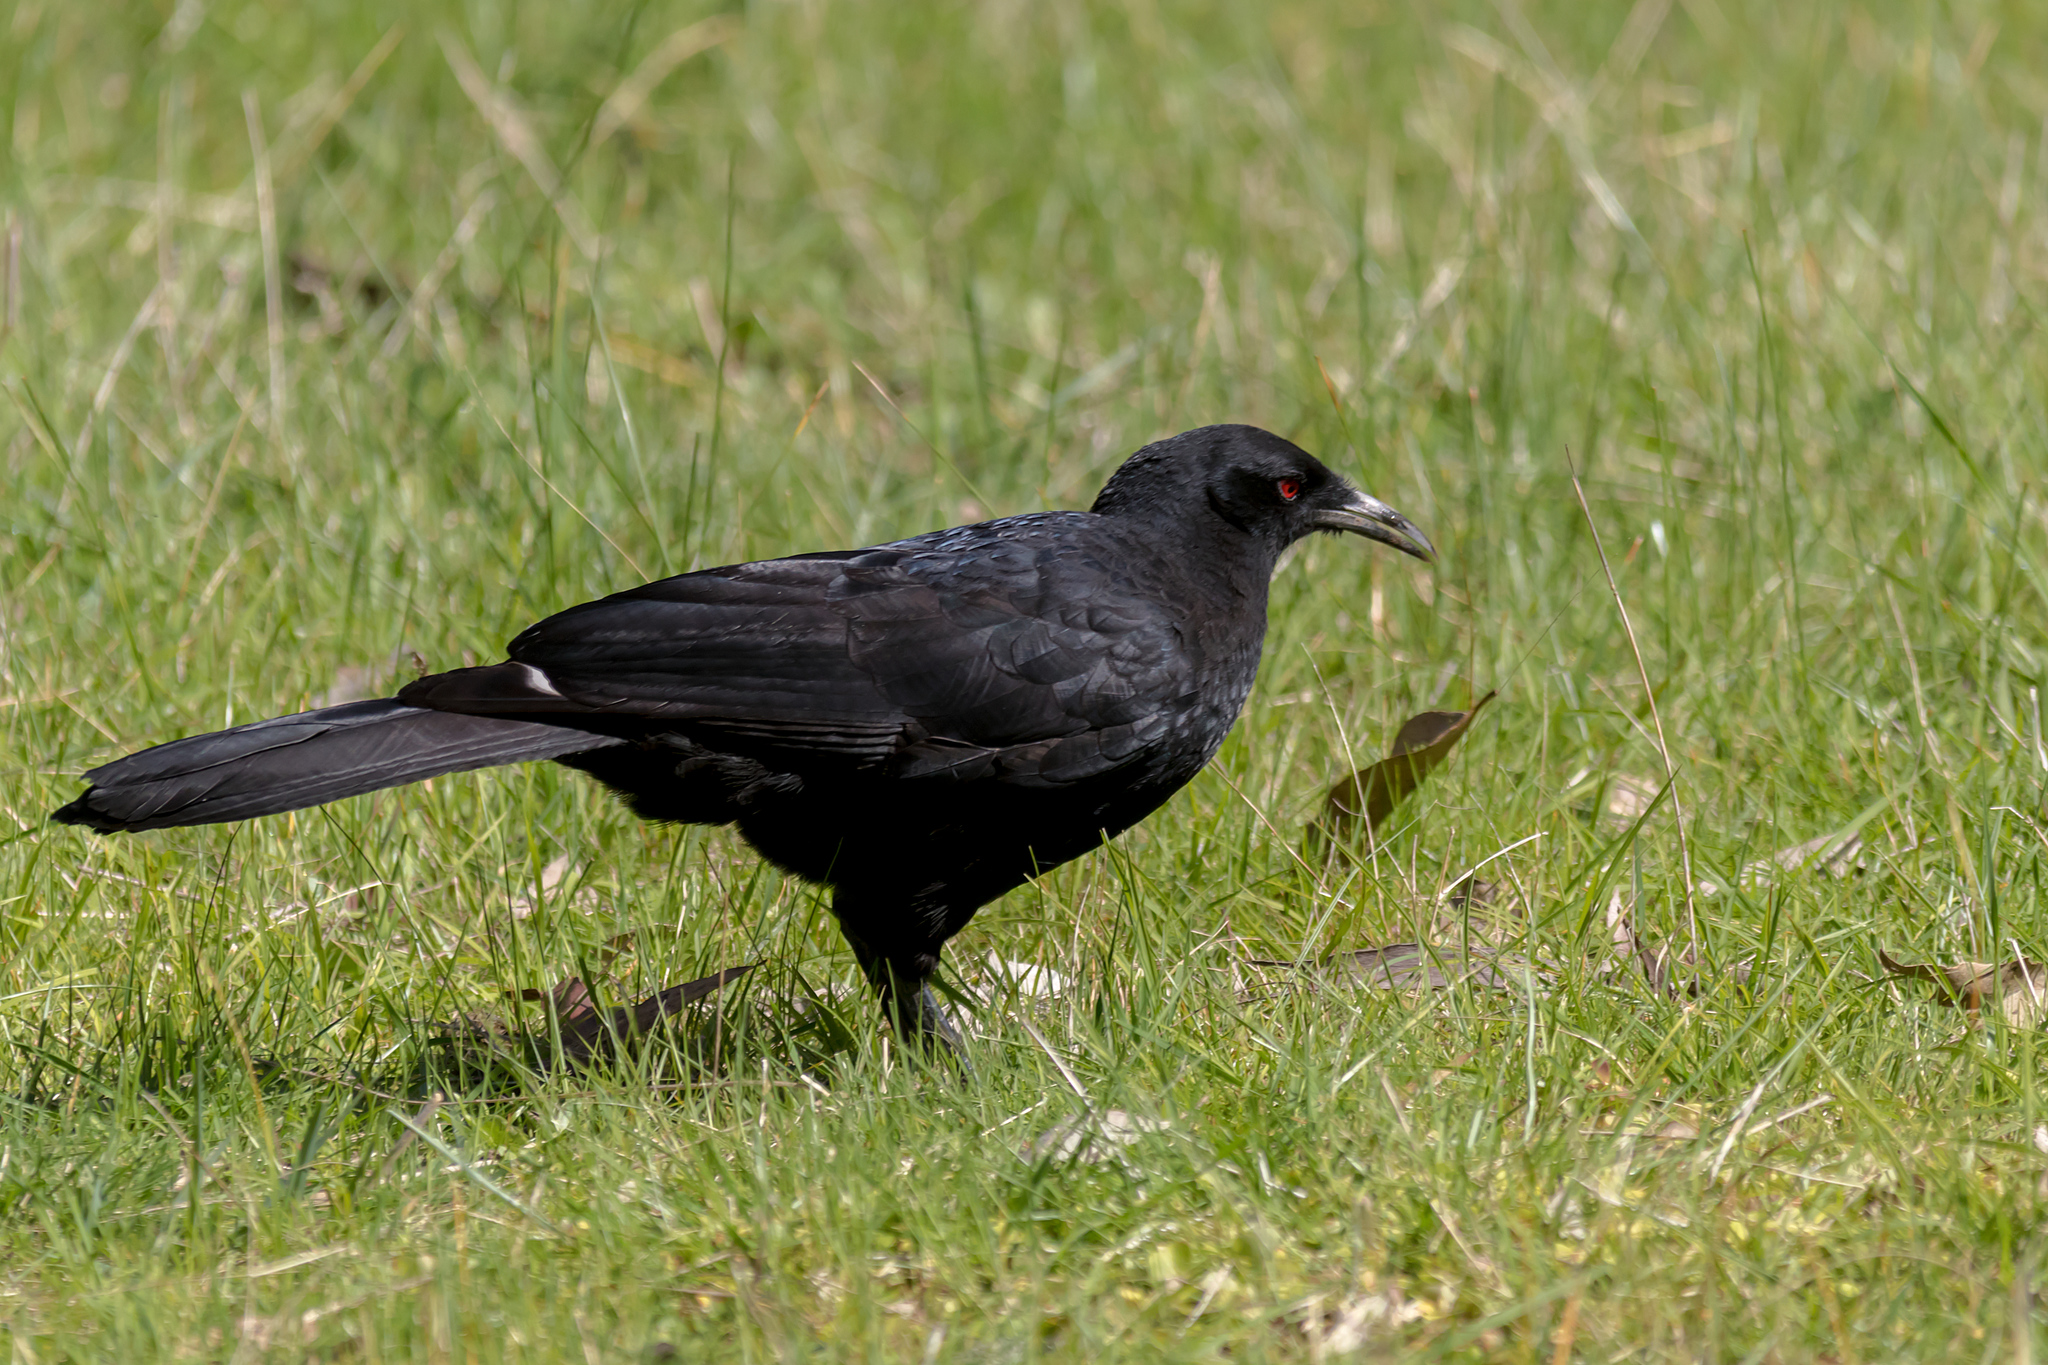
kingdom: Animalia
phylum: Chordata
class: Aves
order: Passeriformes
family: Corcoracidae
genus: Corcorax
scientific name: Corcorax melanoramphos
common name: White-winged chough
